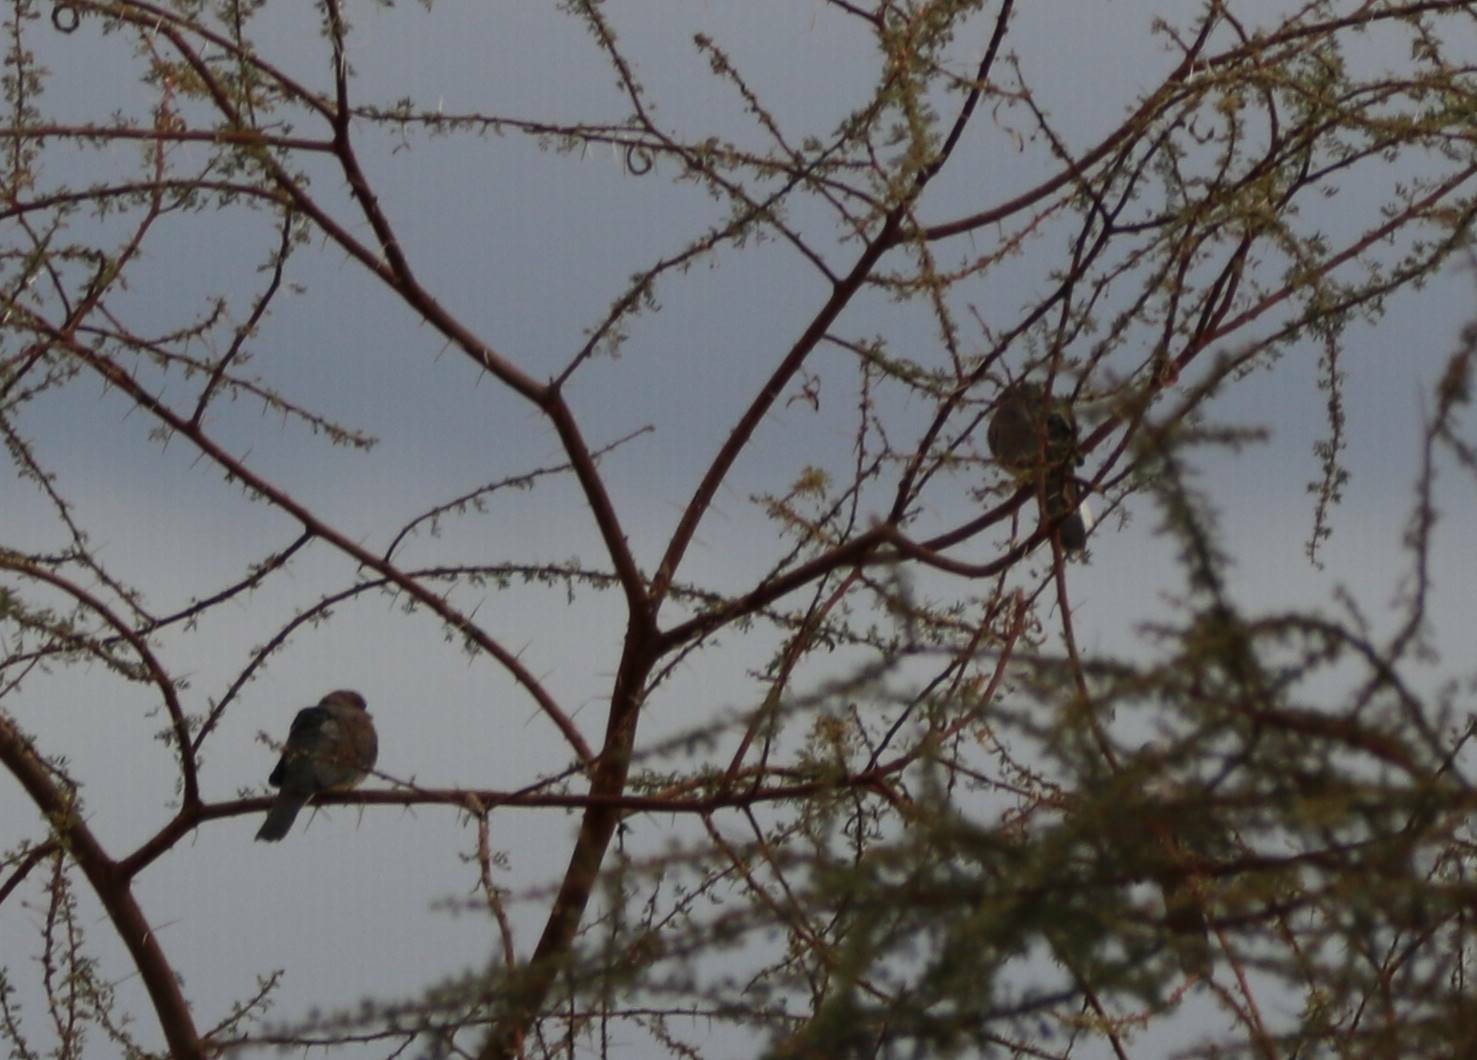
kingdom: Animalia
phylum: Chordata
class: Aves
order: Columbiformes
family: Columbidae
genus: Spilopelia
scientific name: Spilopelia senegalensis
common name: Laughing dove
